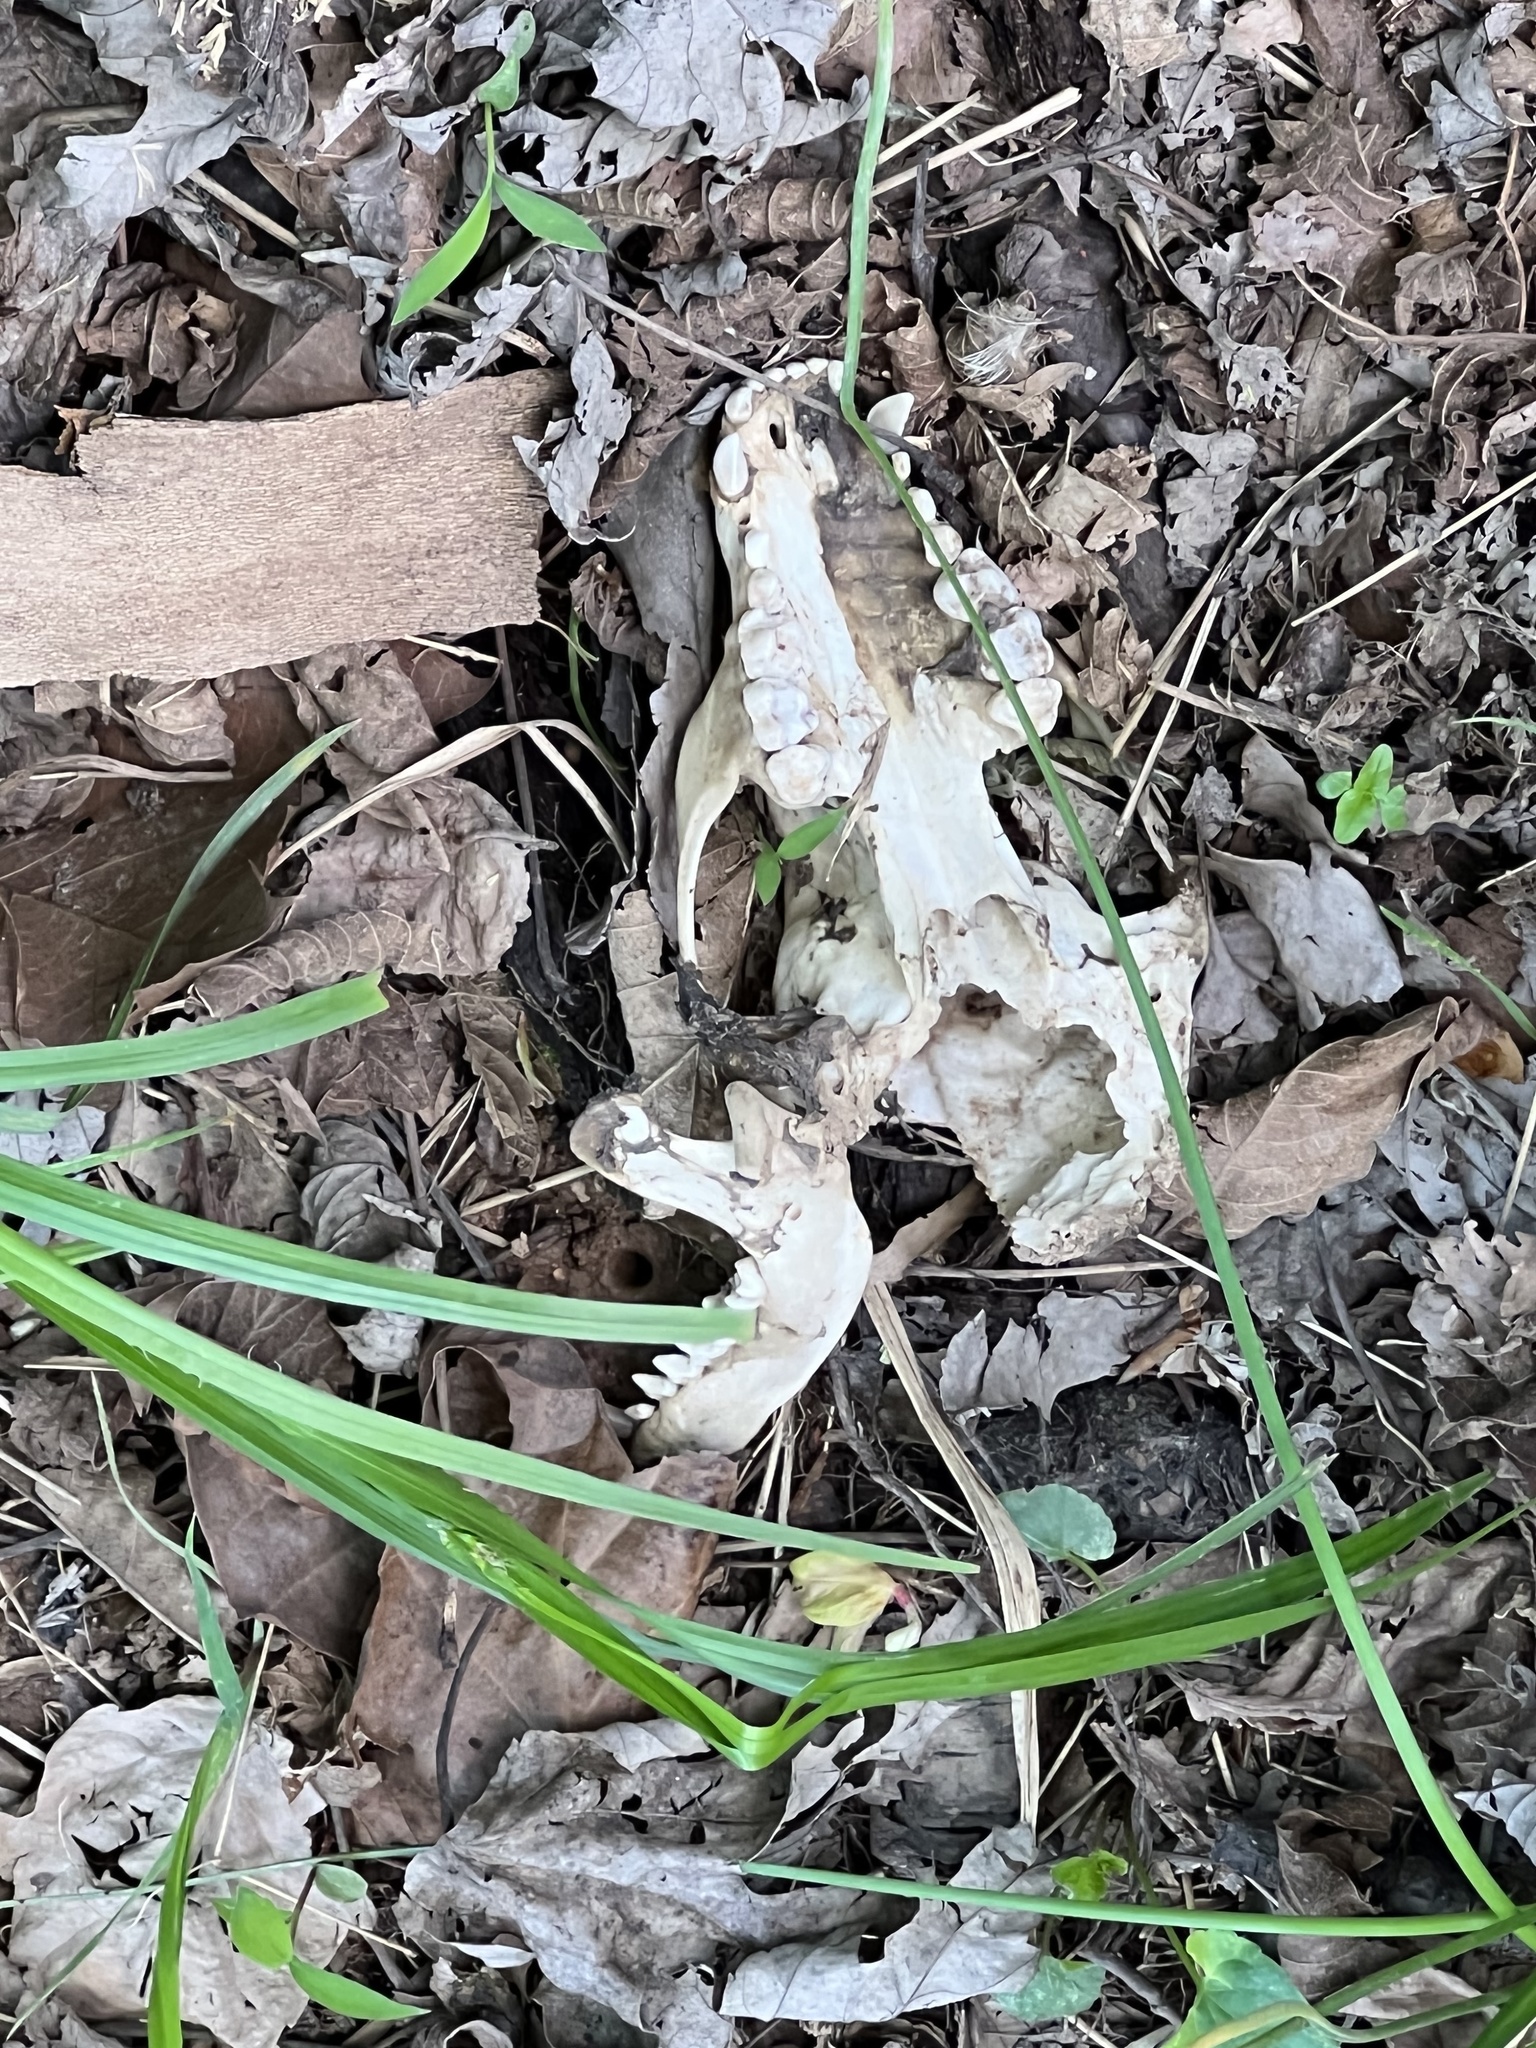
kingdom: Animalia
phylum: Chordata
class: Mammalia
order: Carnivora
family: Procyonidae
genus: Procyon
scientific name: Procyon lotor
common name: Raccoon
